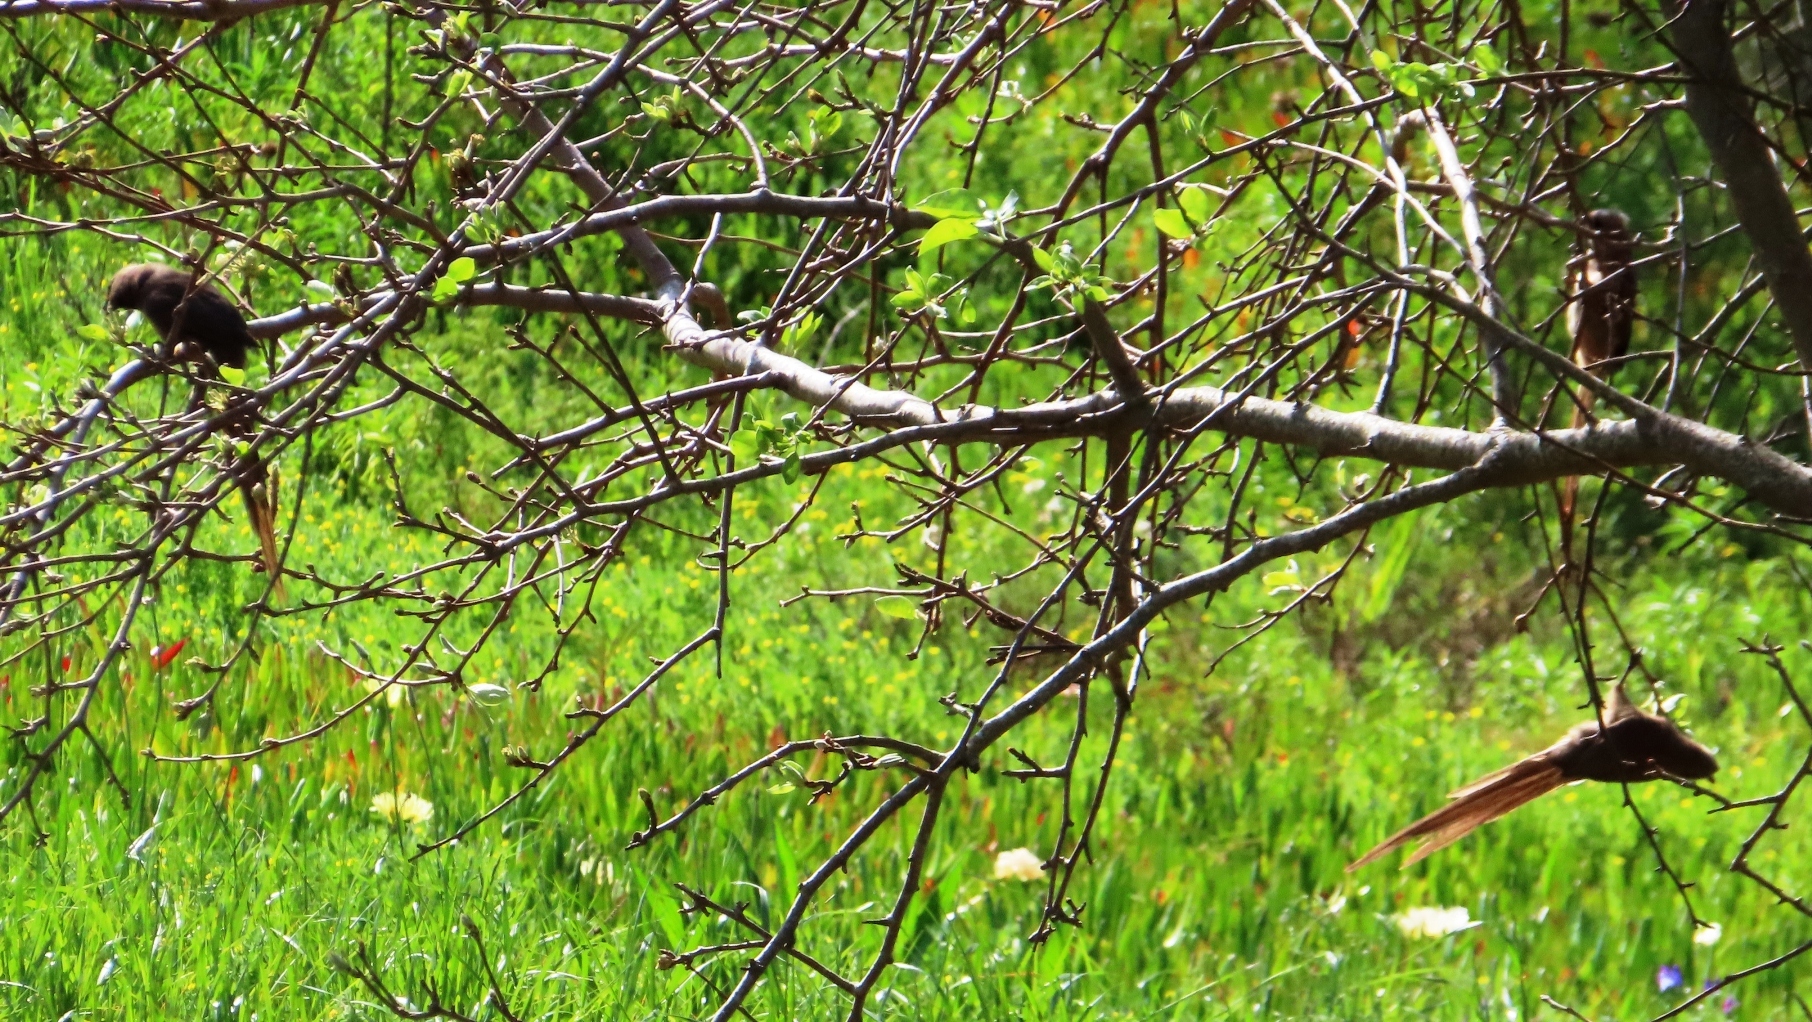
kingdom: Animalia
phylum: Chordata
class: Aves
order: Coliiformes
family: Coliidae
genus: Colius
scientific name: Colius striatus
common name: Speckled mousebird
